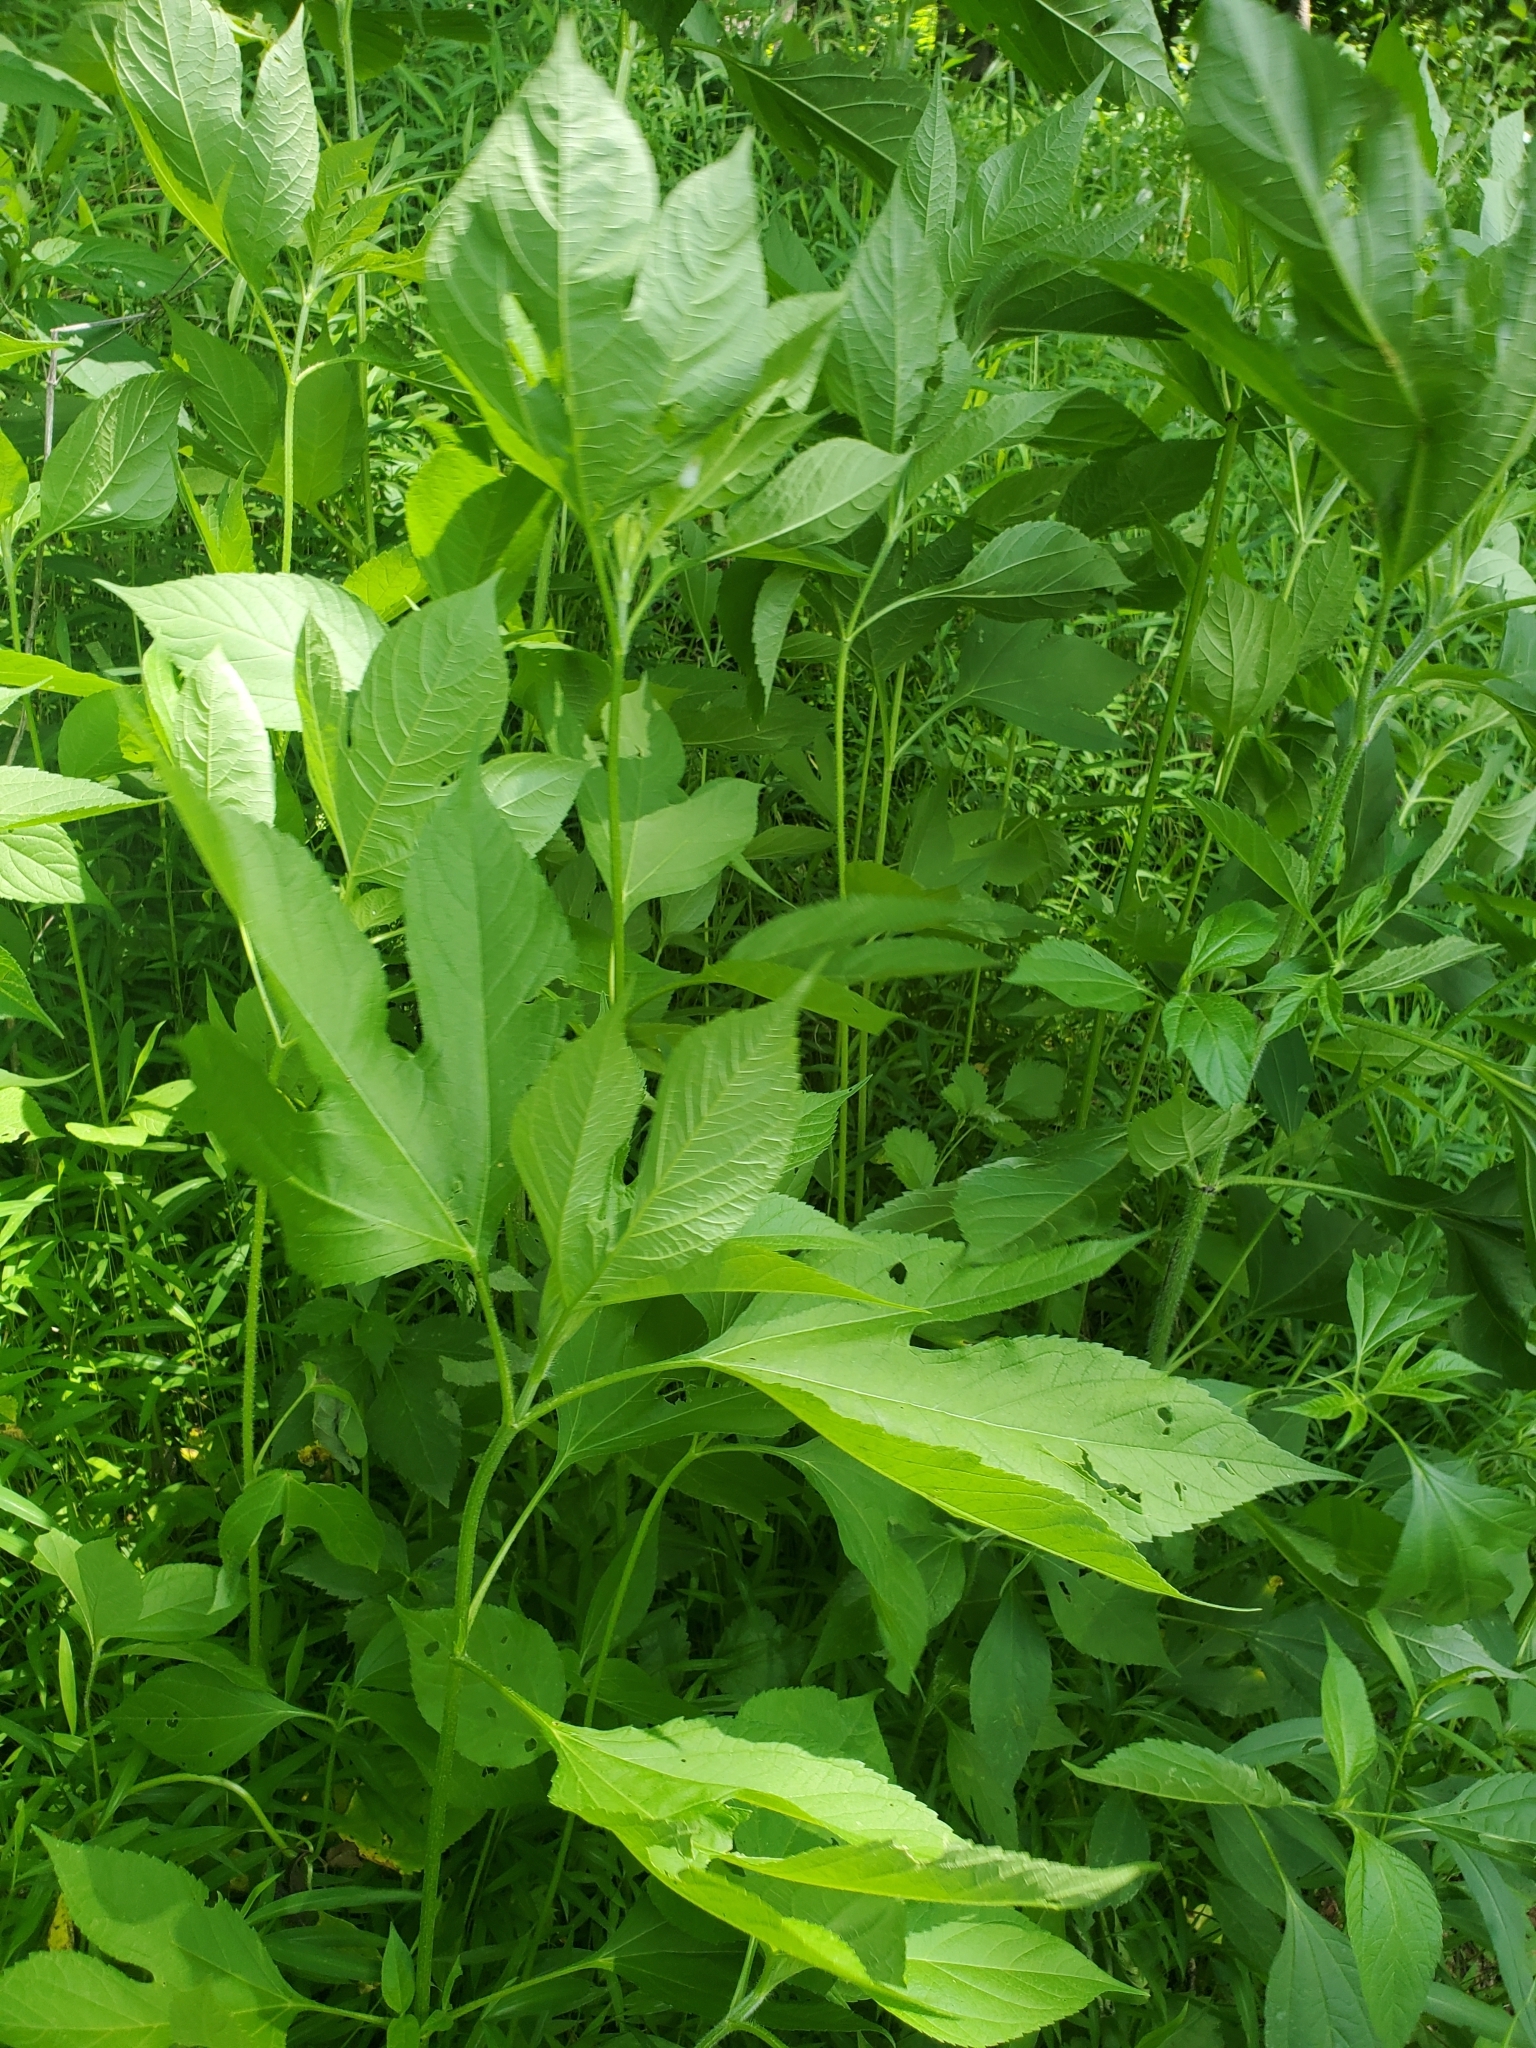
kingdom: Plantae
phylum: Tracheophyta
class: Magnoliopsida
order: Asterales
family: Asteraceae
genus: Ambrosia
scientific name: Ambrosia trifida
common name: Giant ragweed
